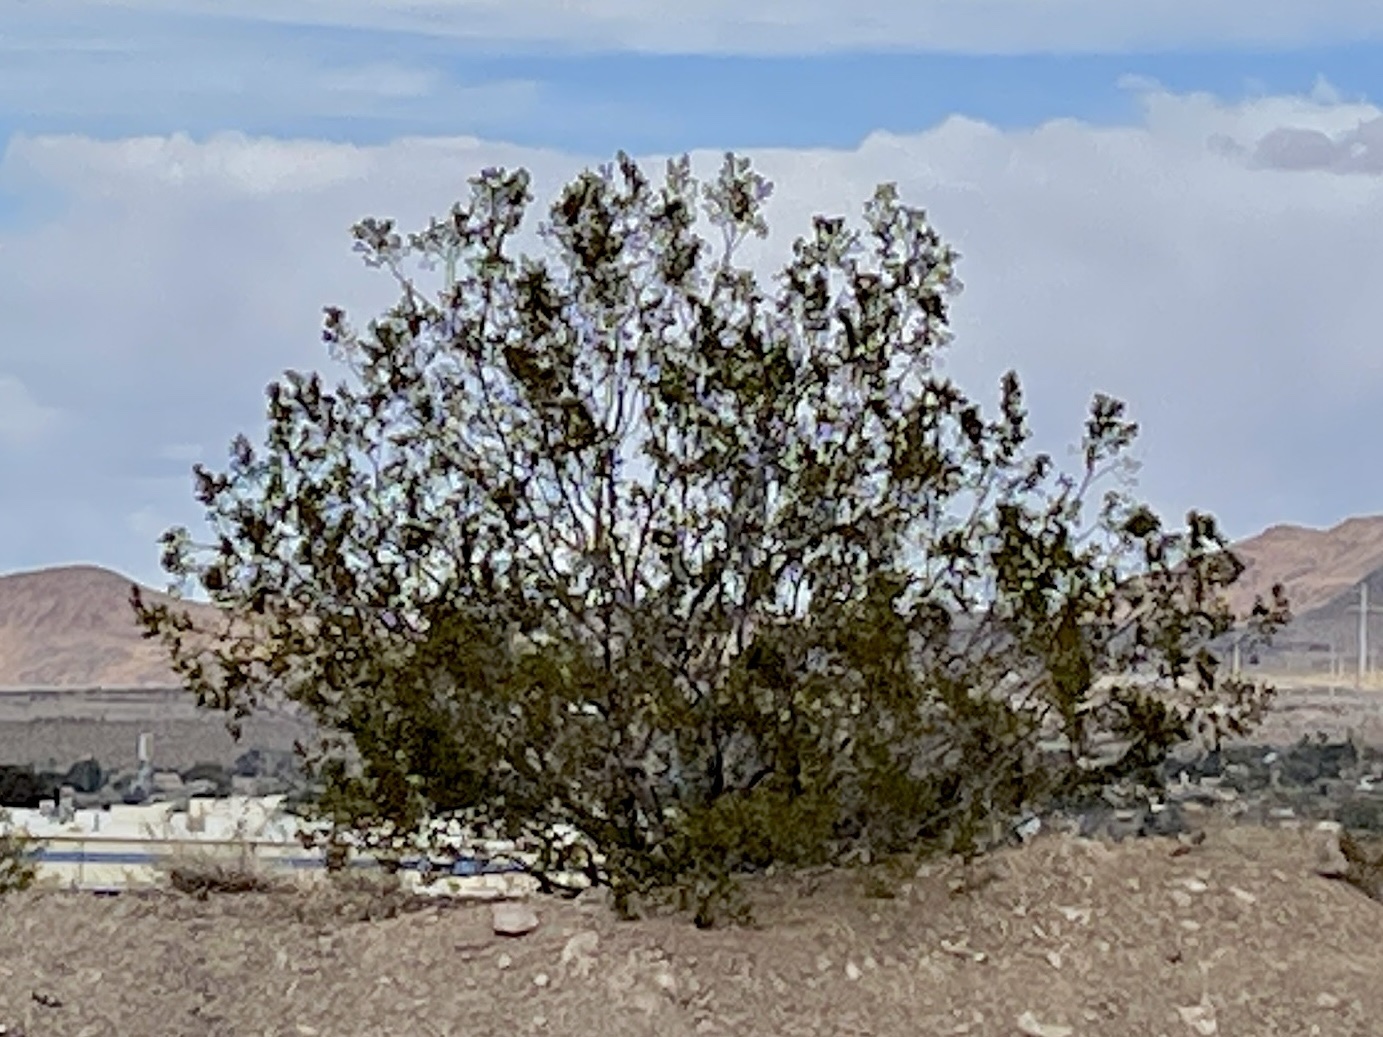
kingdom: Plantae
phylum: Tracheophyta
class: Magnoliopsida
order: Zygophyllales
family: Zygophyllaceae
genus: Larrea
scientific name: Larrea tridentata
